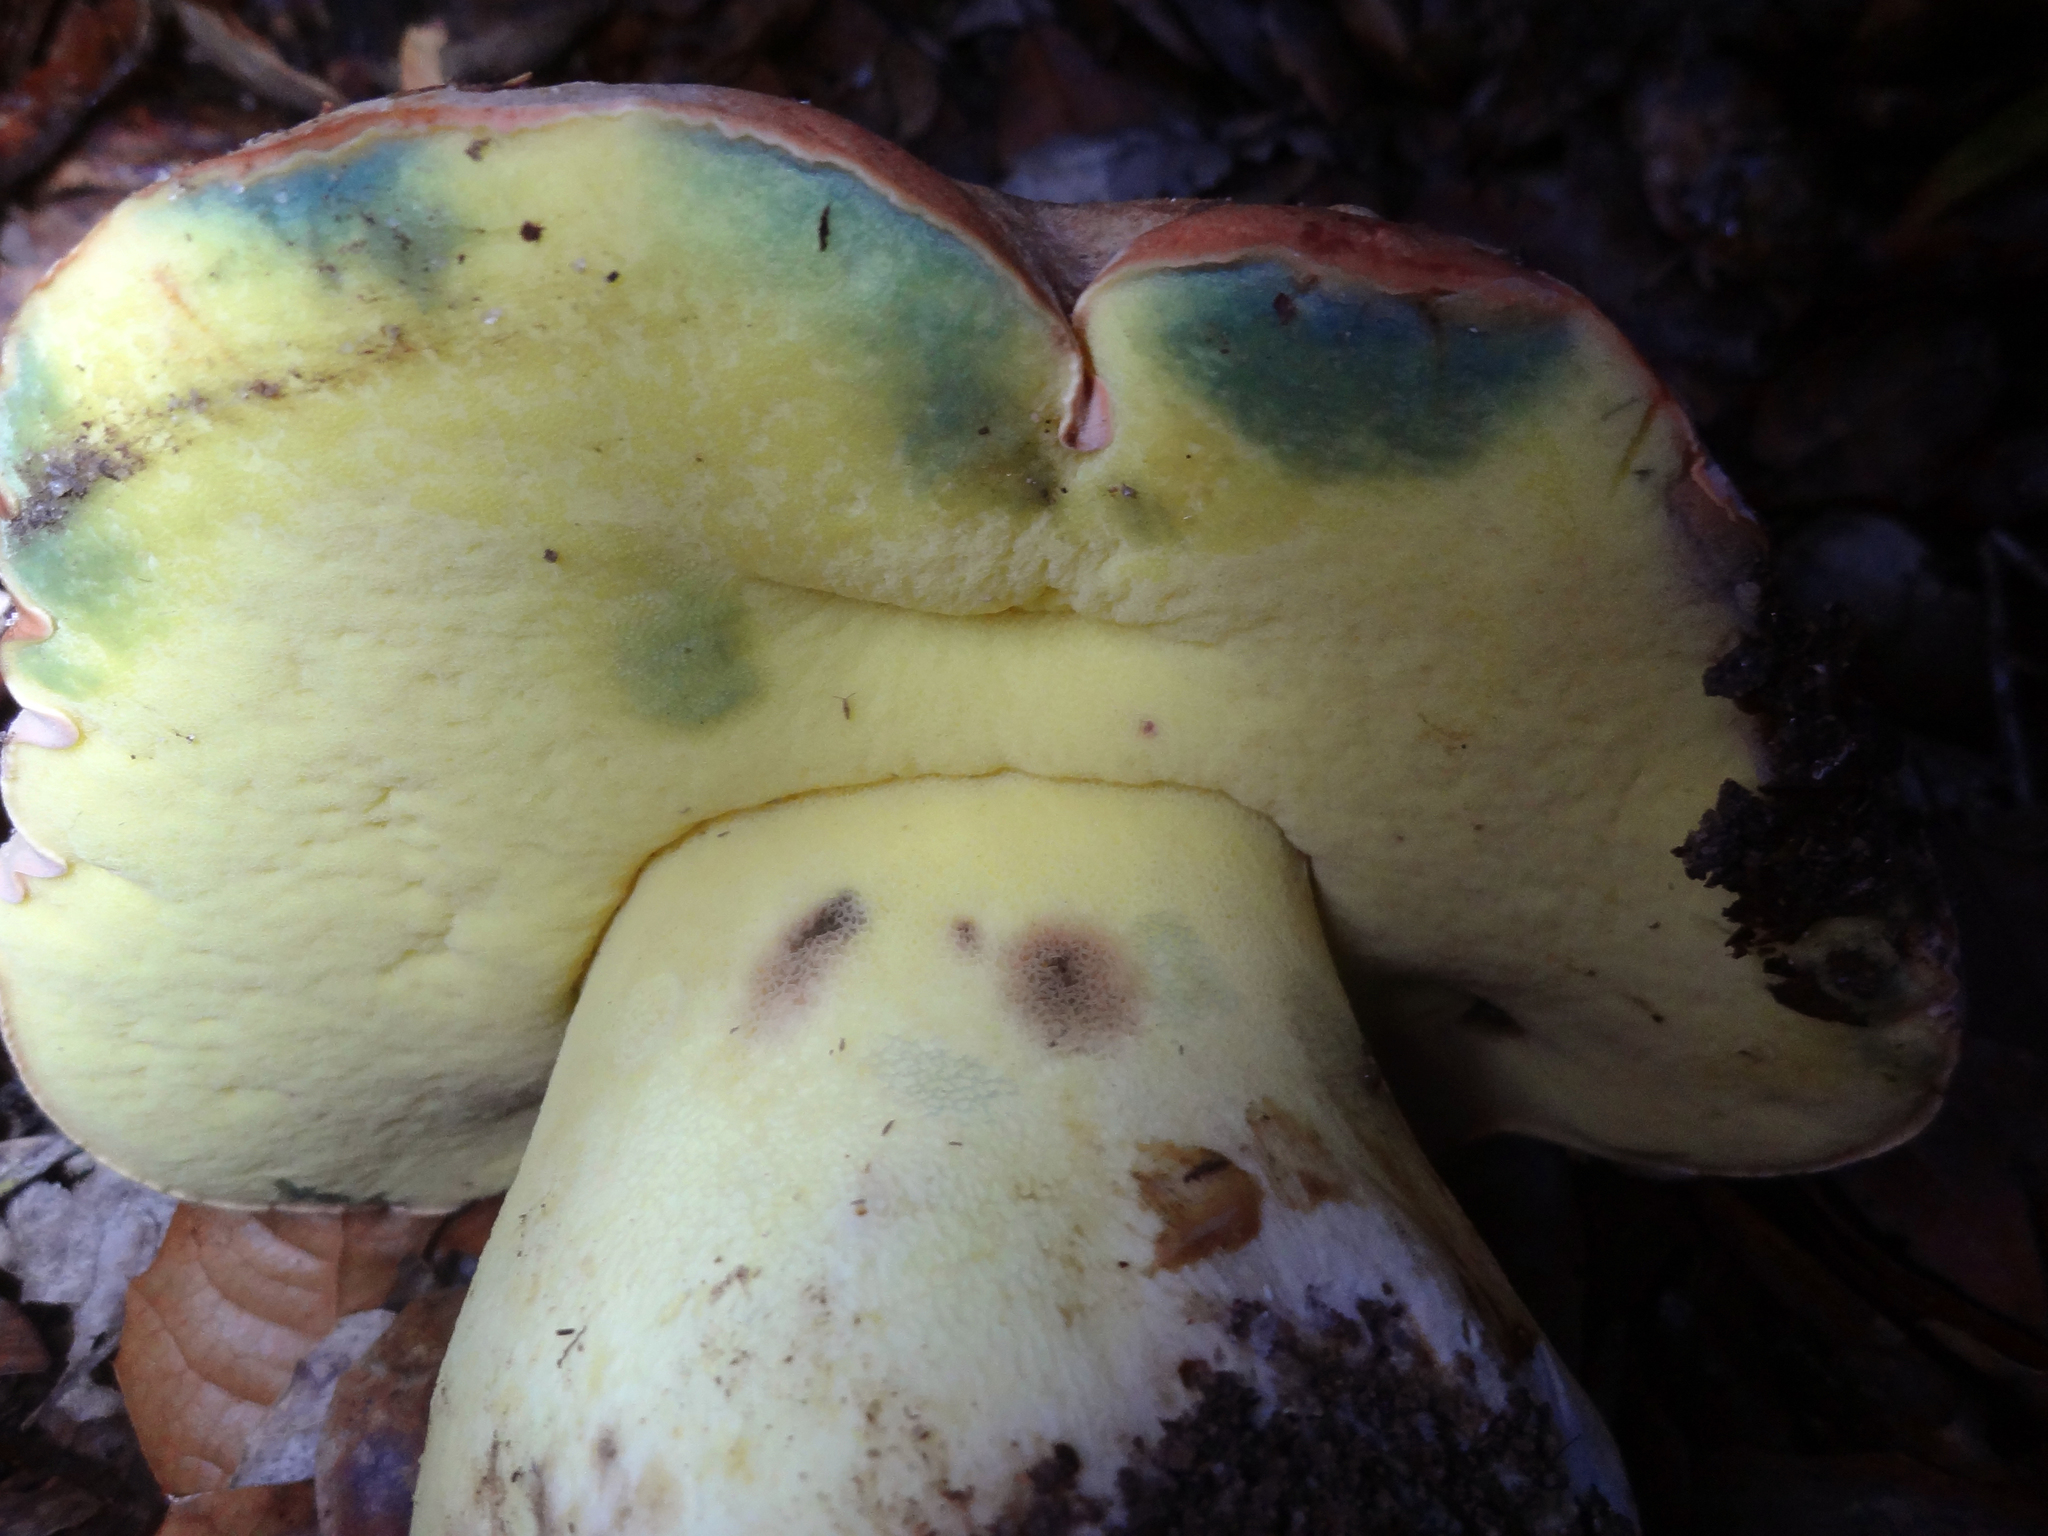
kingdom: Fungi
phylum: Basidiomycota
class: Agaricomycetes
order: Boletales
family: Boletaceae
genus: Butyriboletus
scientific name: Butyriboletus persolidus
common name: Brown butter bolete
